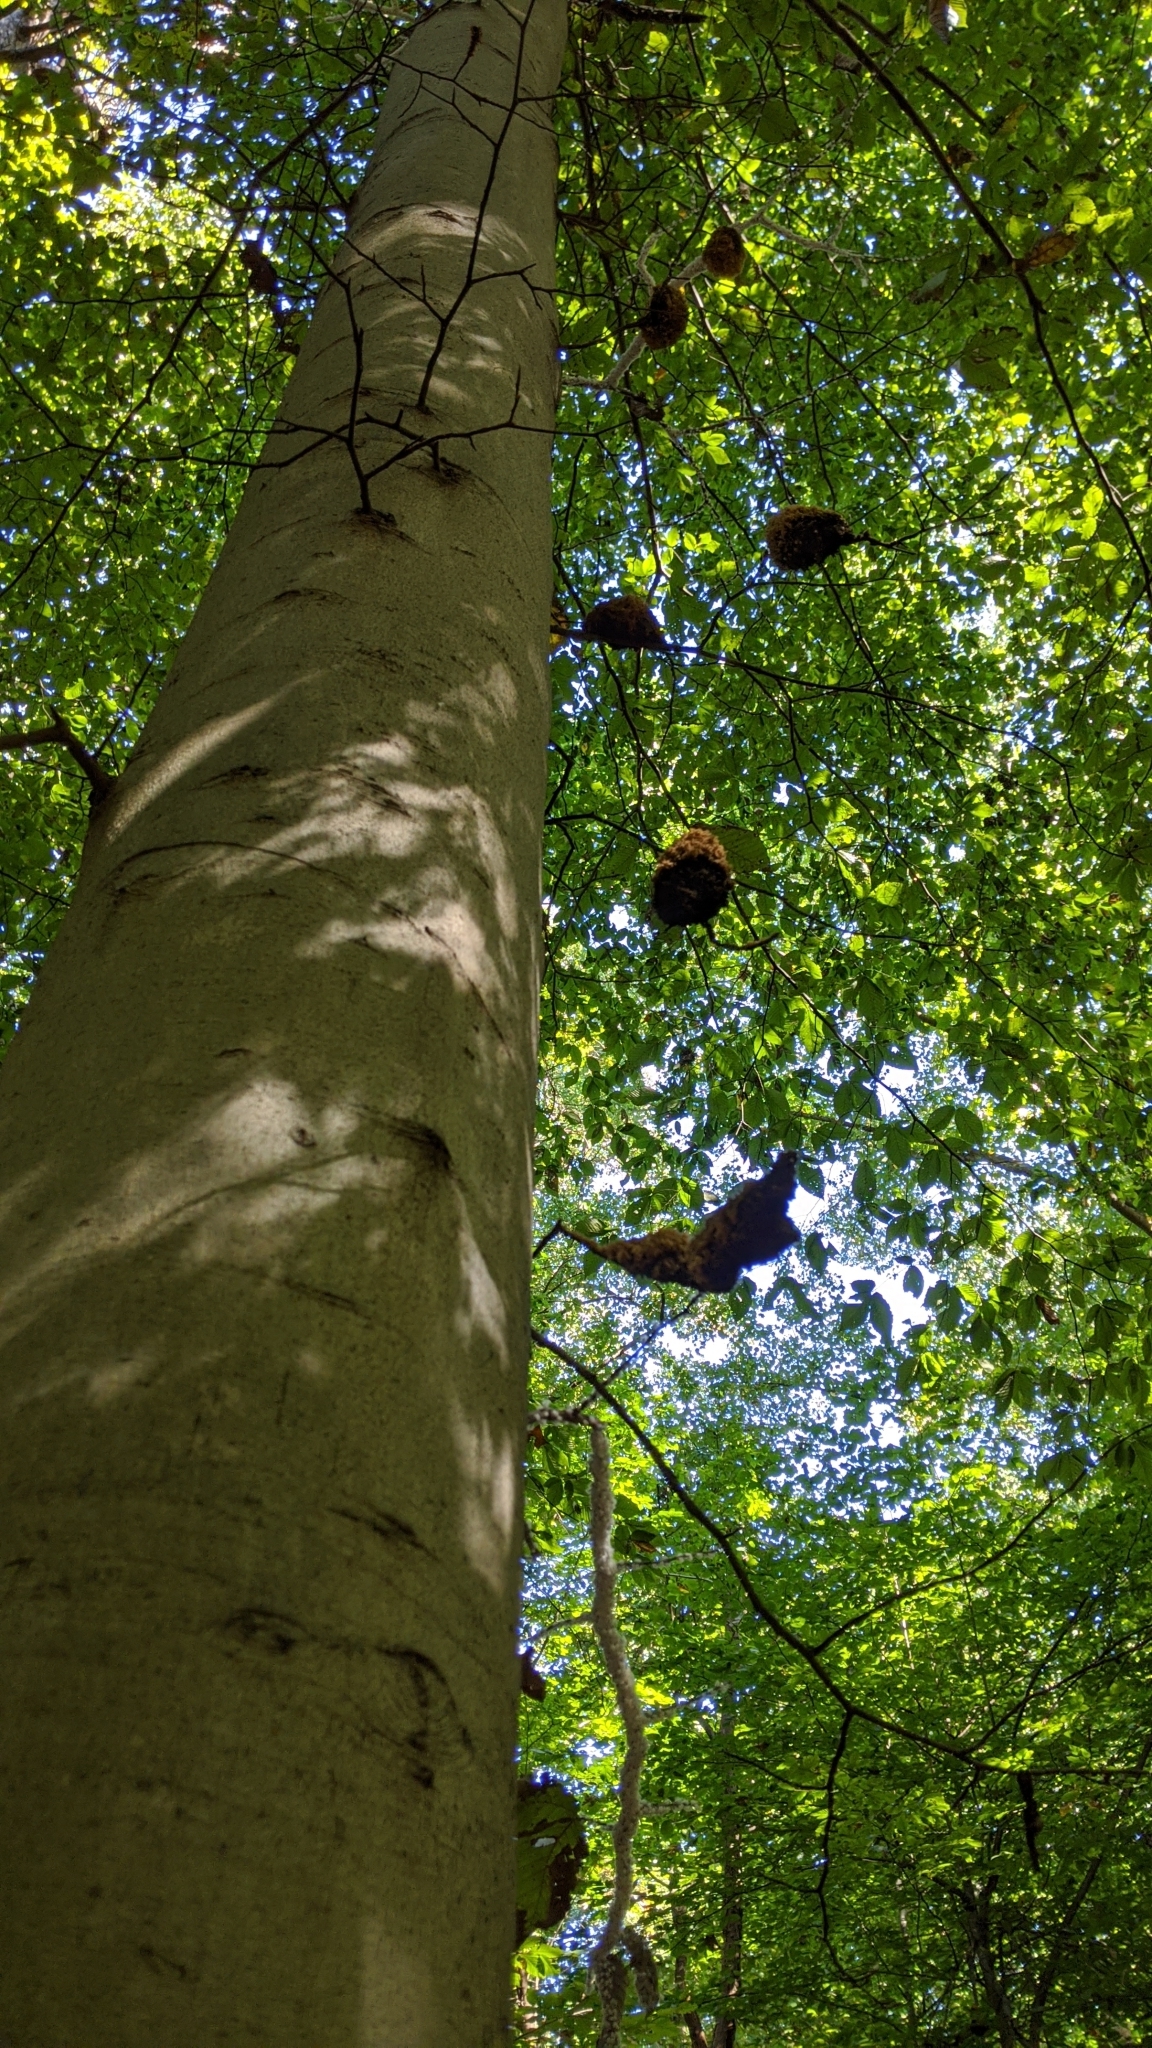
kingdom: Animalia
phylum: Arthropoda
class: Insecta
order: Hemiptera
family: Aphididae
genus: Grylloprociphilus
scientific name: Grylloprociphilus imbricator
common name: Beech blight aphid
